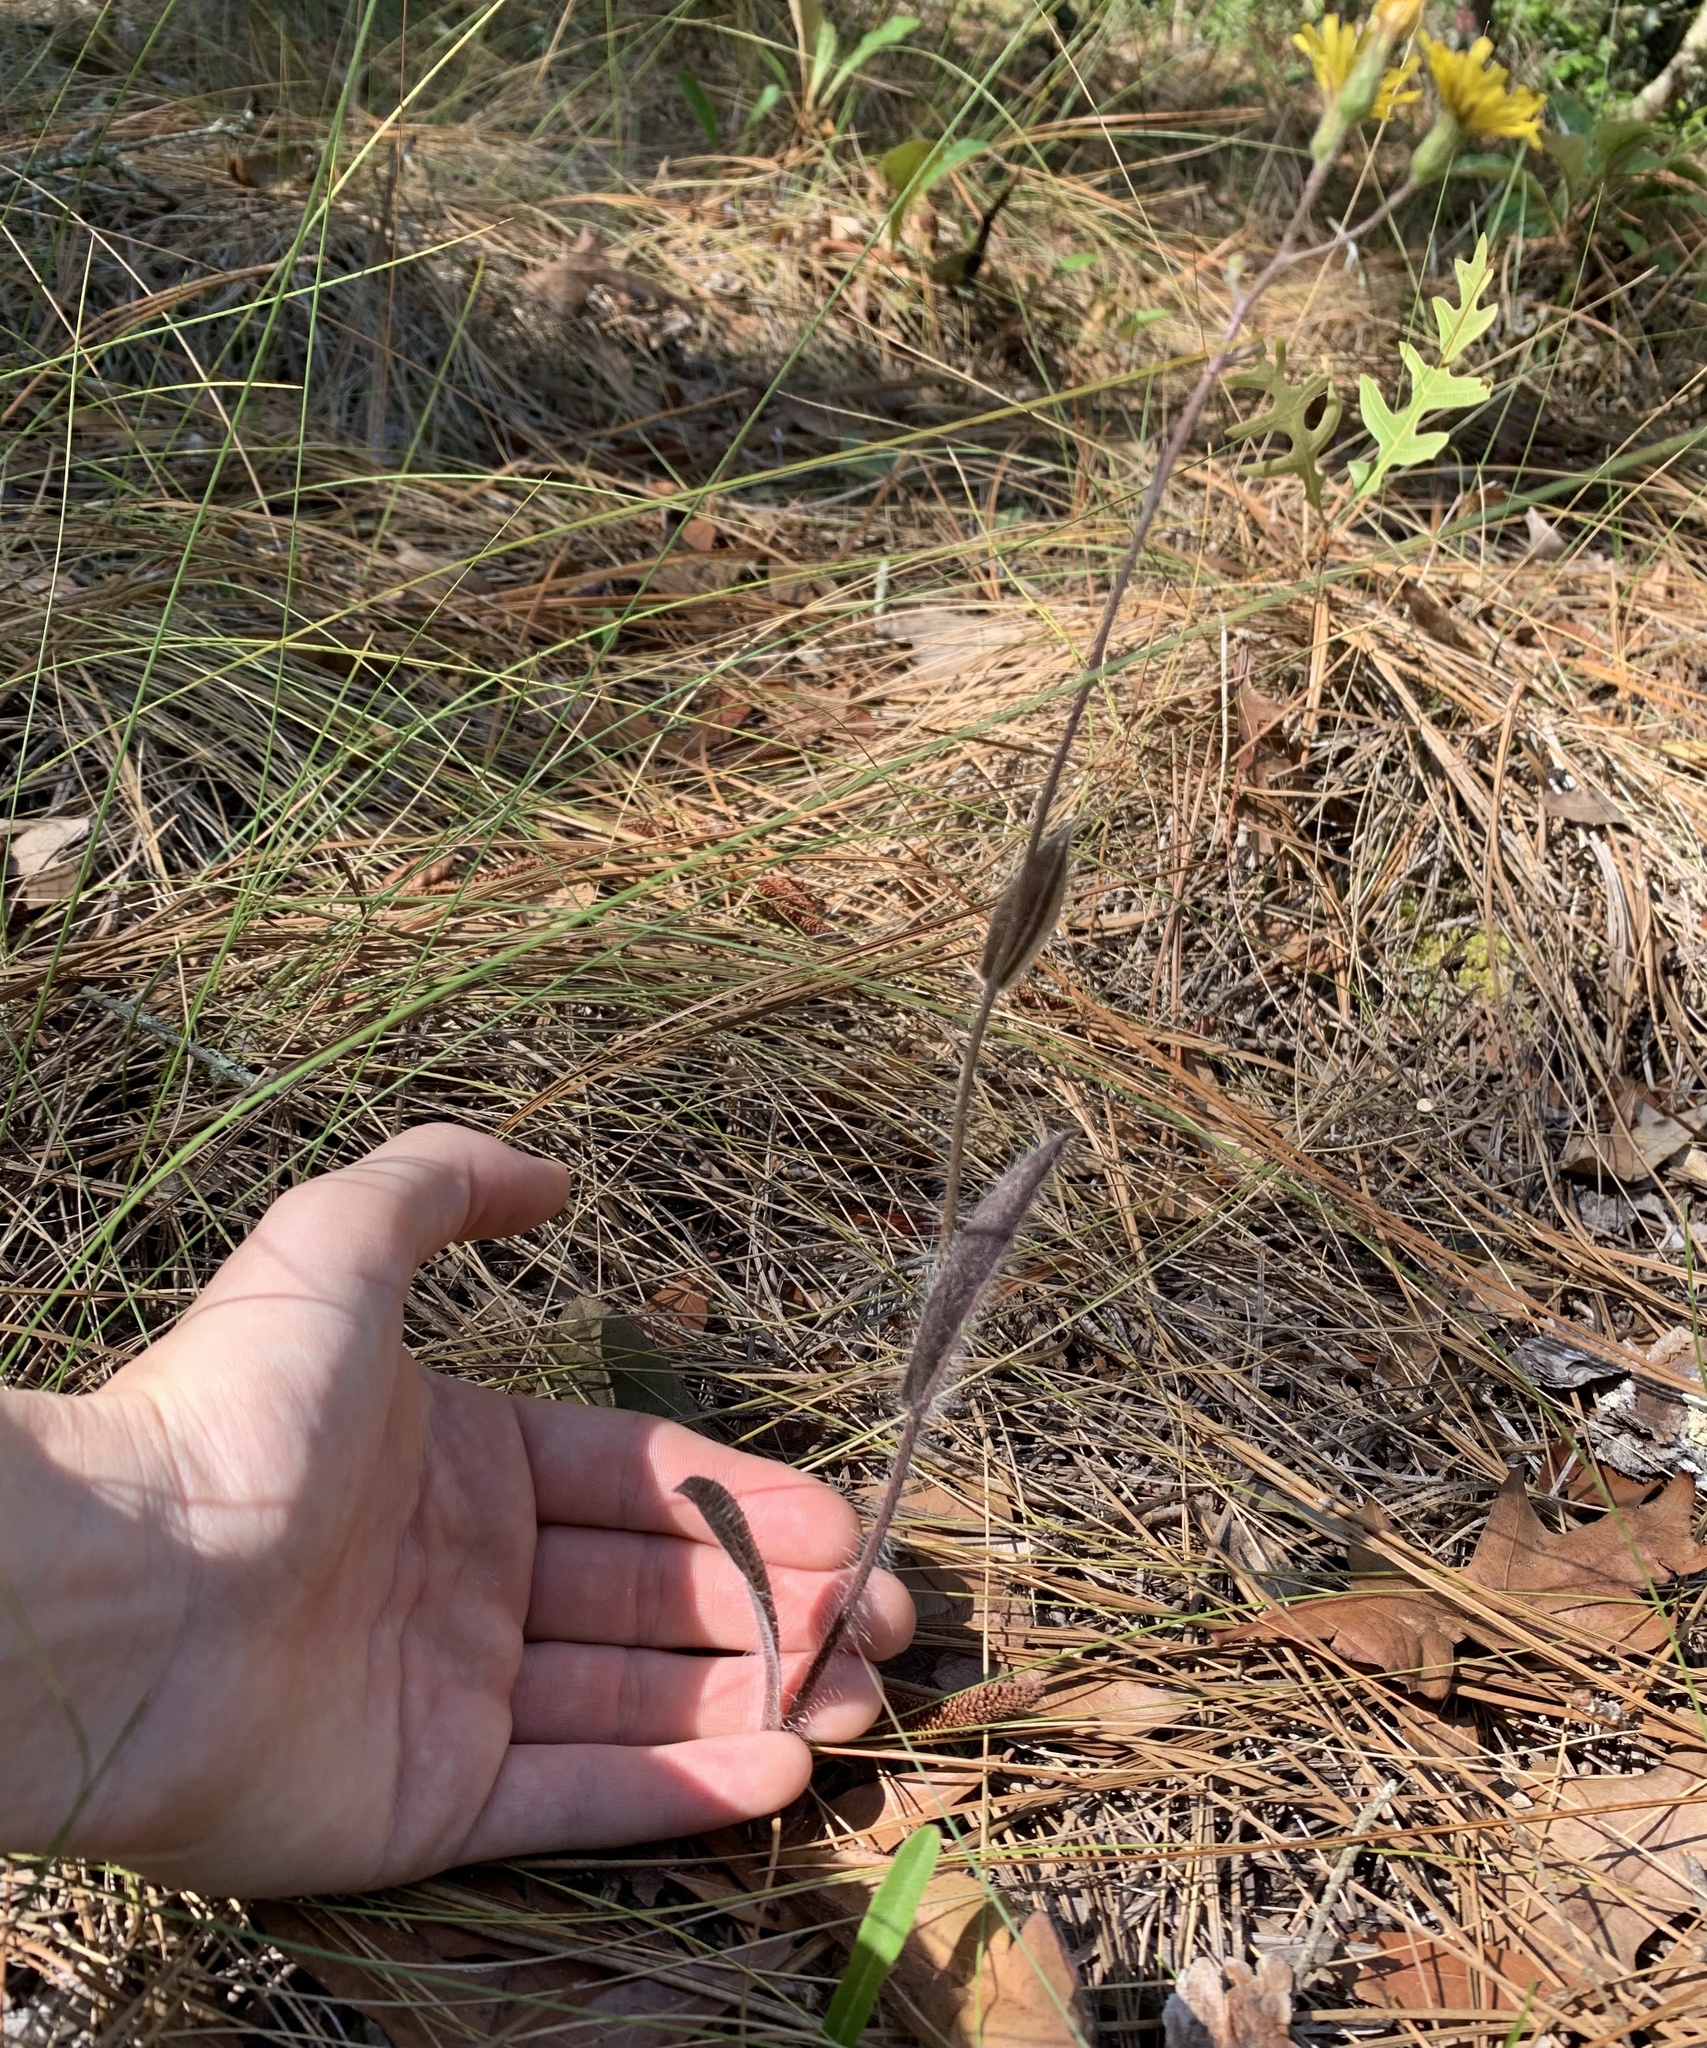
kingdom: Plantae
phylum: Tracheophyta
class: Magnoliopsida
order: Asterales
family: Asteraceae
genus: Hieracium
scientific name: Hieracium megacephalum
